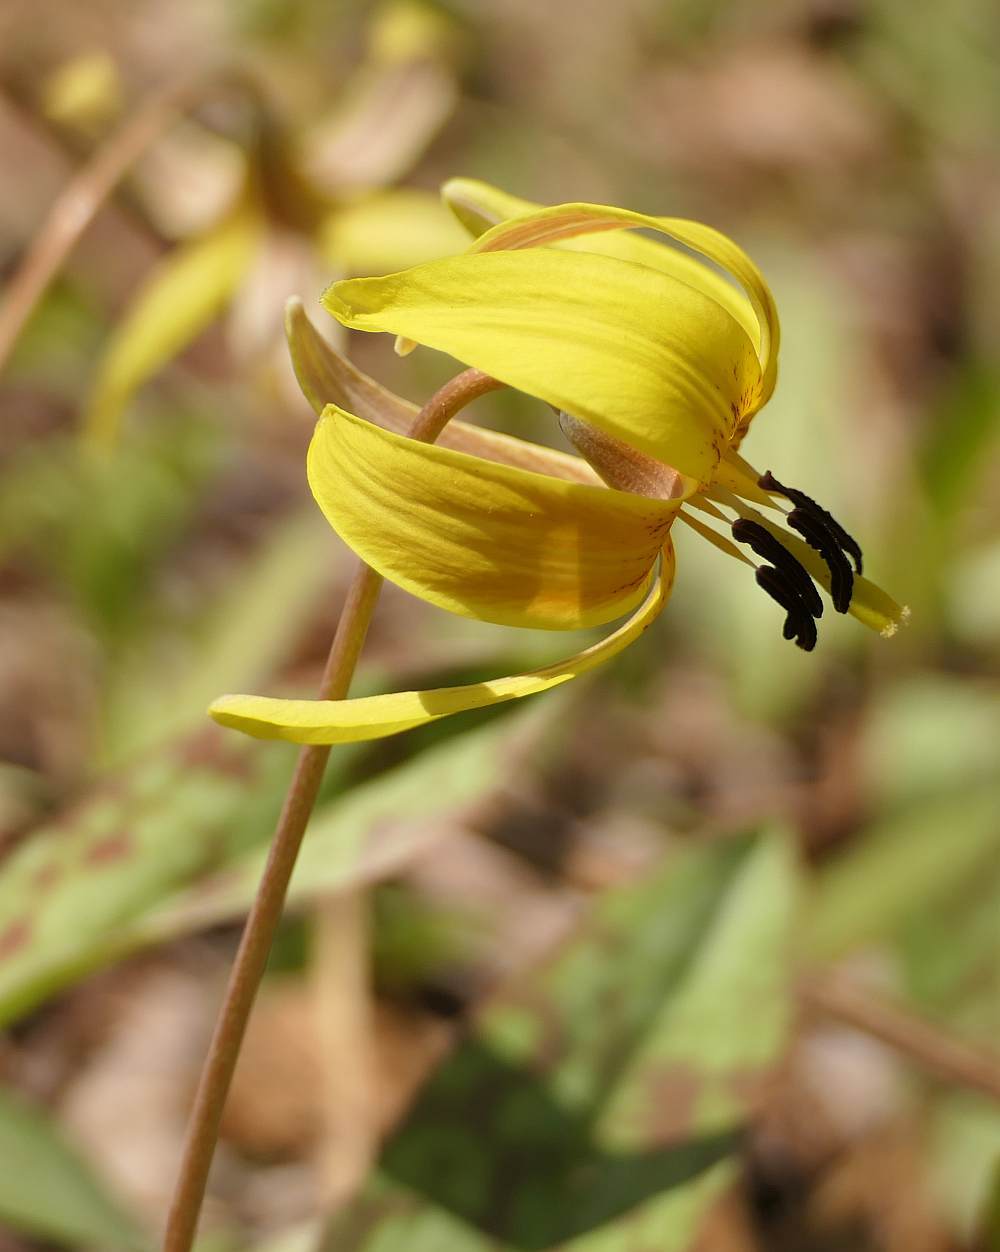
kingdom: Plantae
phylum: Tracheophyta
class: Liliopsida
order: Liliales
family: Liliaceae
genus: Erythronium
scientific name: Erythronium americanum
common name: Yellow adder's-tongue
